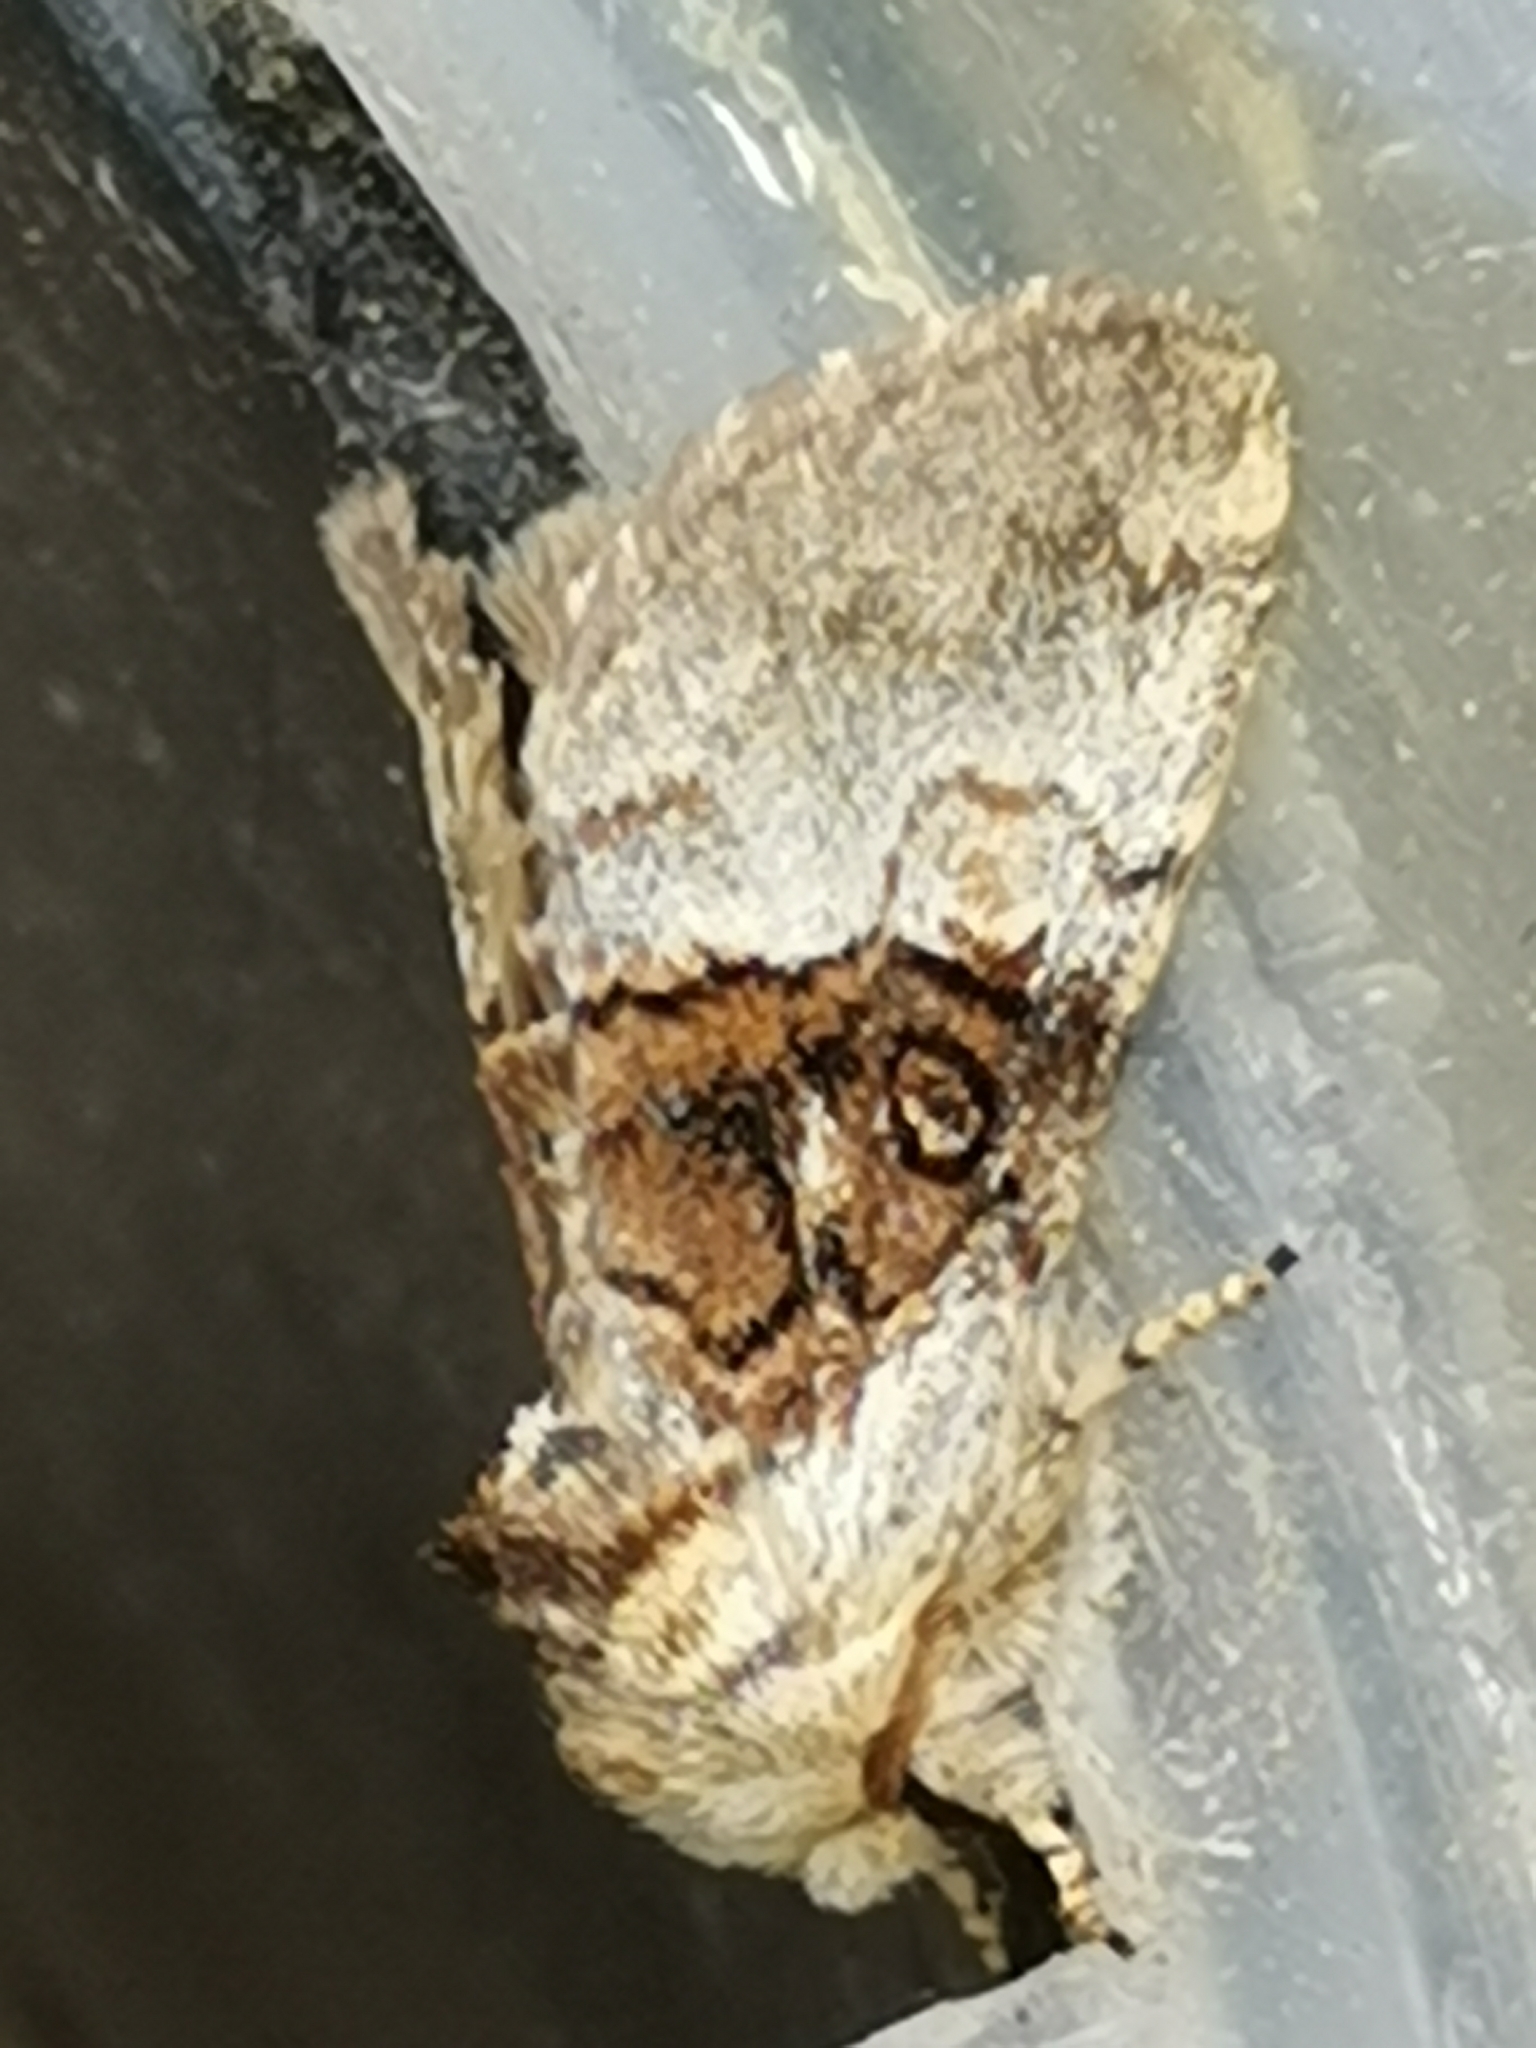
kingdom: Animalia
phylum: Arthropoda
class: Insecta
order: Lepidoptera
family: Noctuidae
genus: Colocasia
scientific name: Colocasia coryli
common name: Nut-tree tussock
